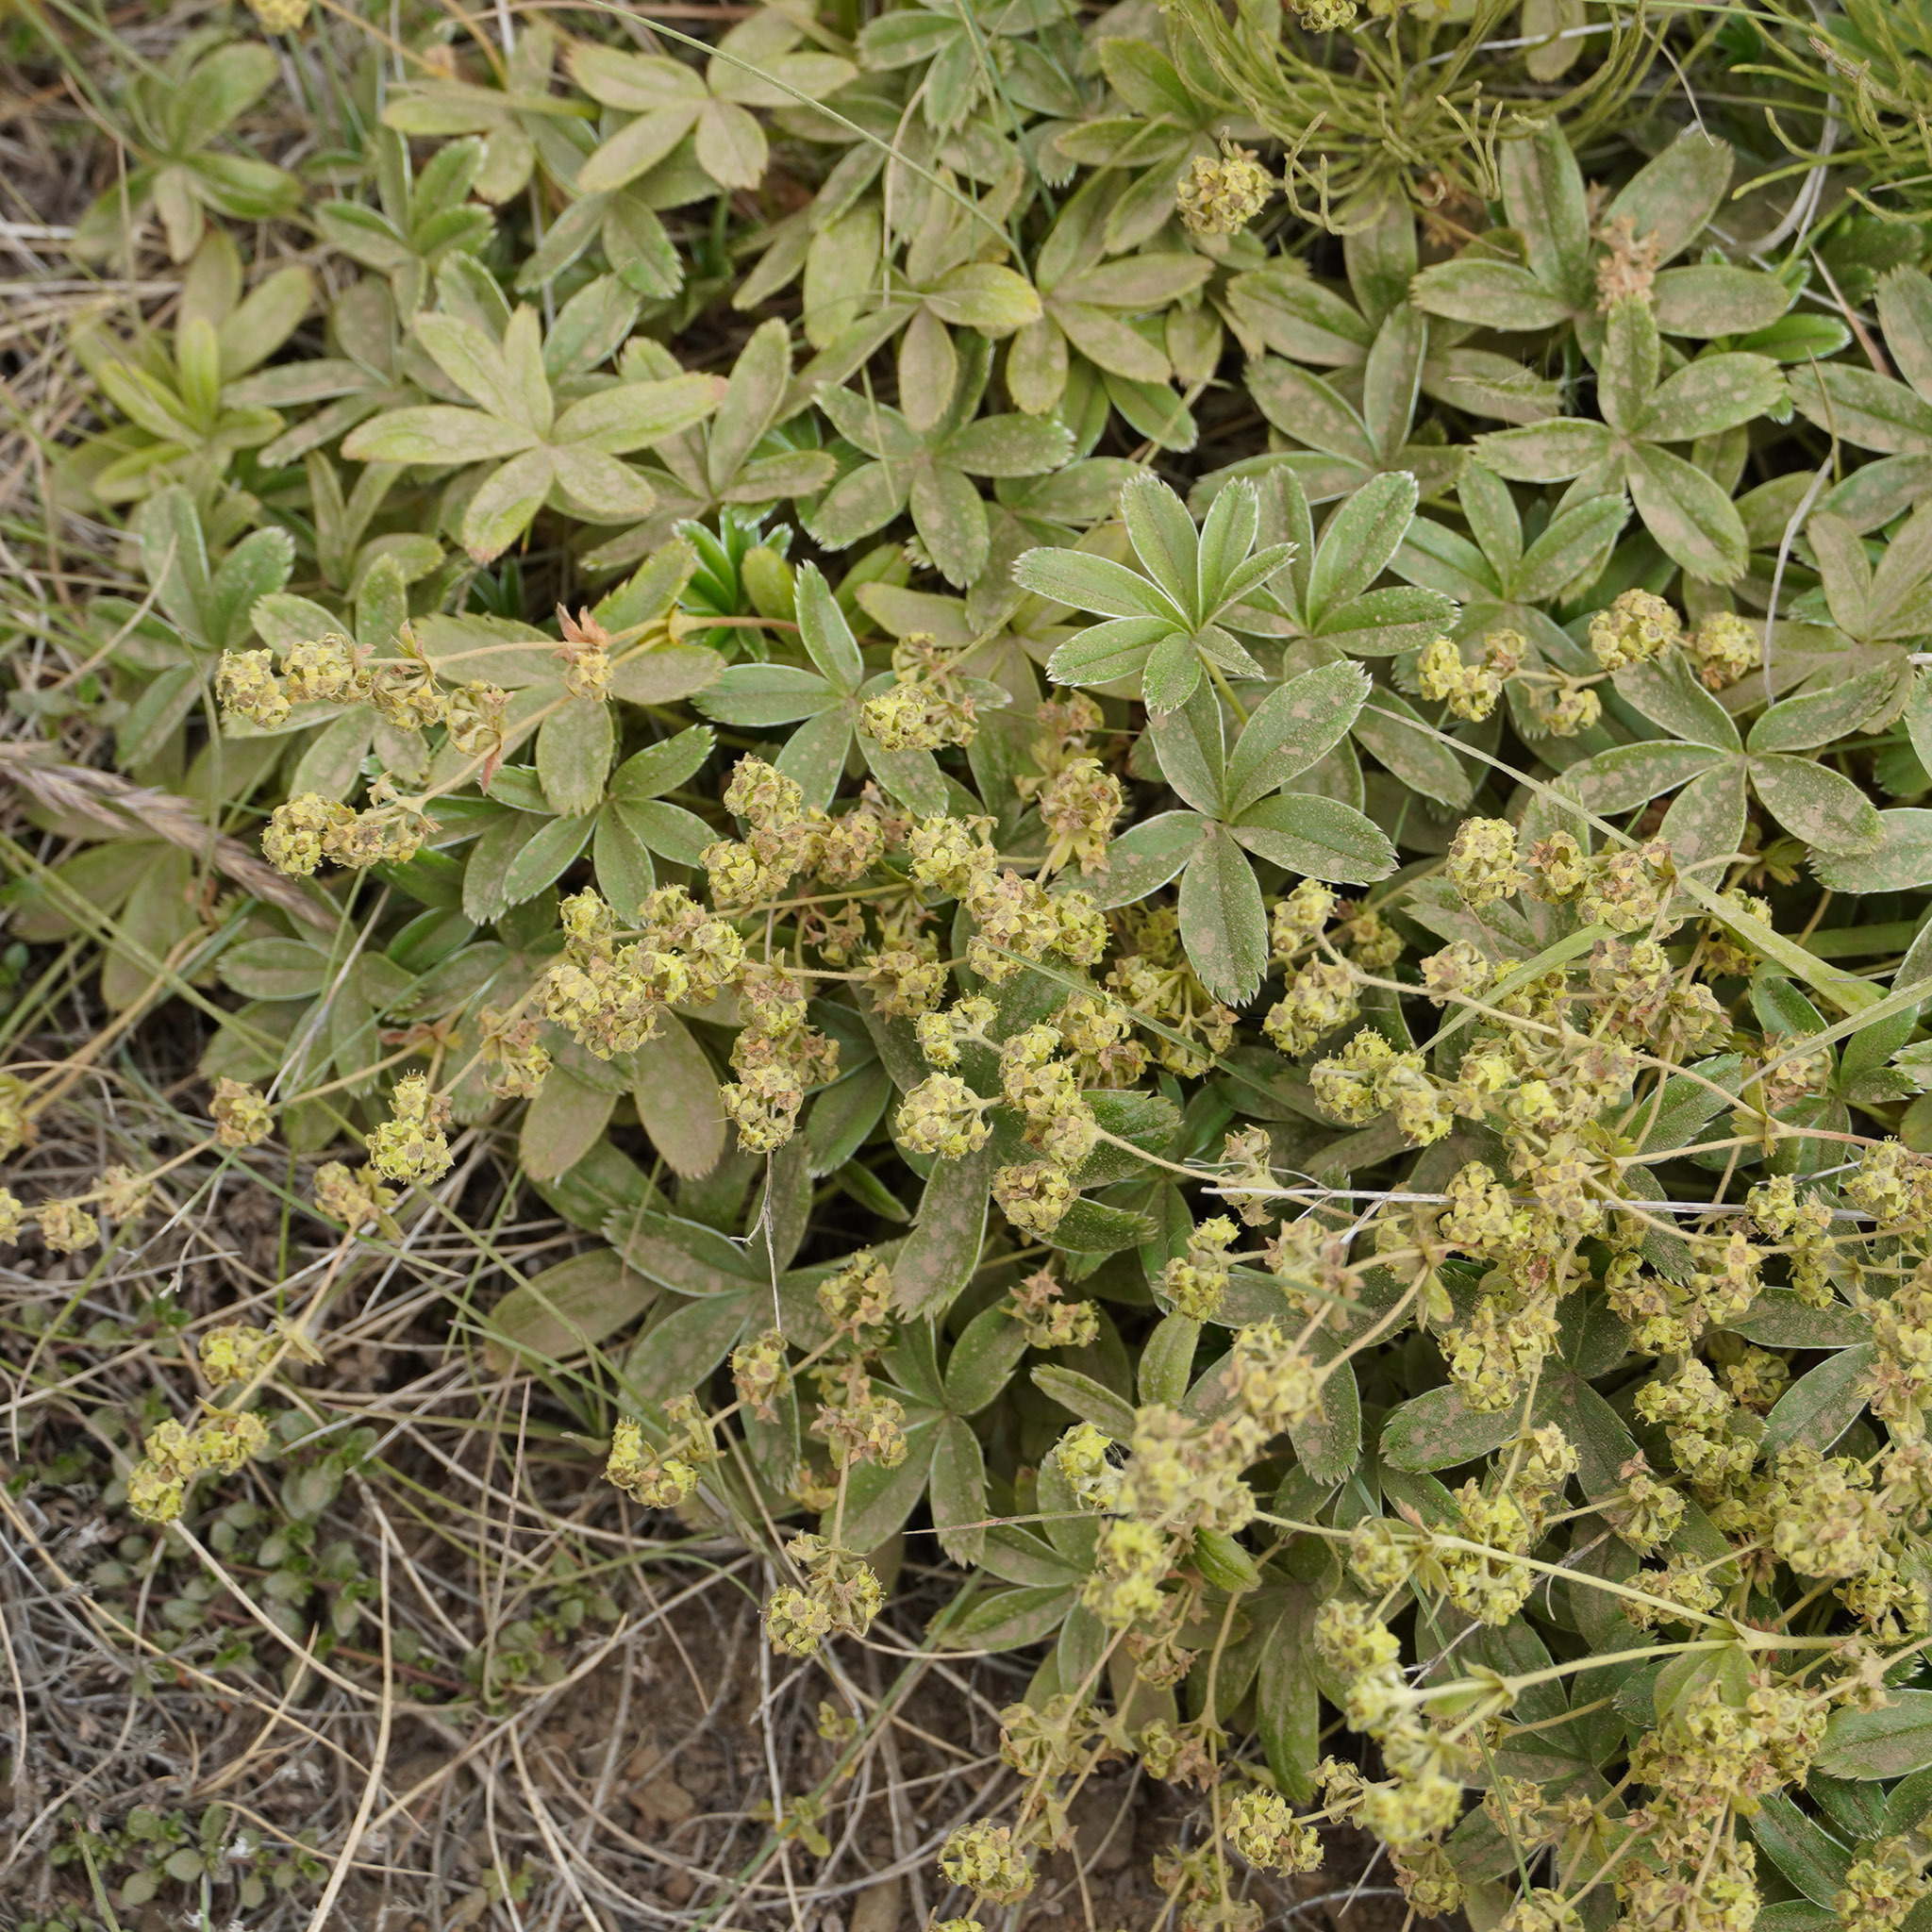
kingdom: Plantae
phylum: Tracheophyta
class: Magnoliopsida
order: Rosales
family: Rosaceae
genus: Alchemilla
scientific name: Alchemilla alpina
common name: Alpine lady's-mantle
